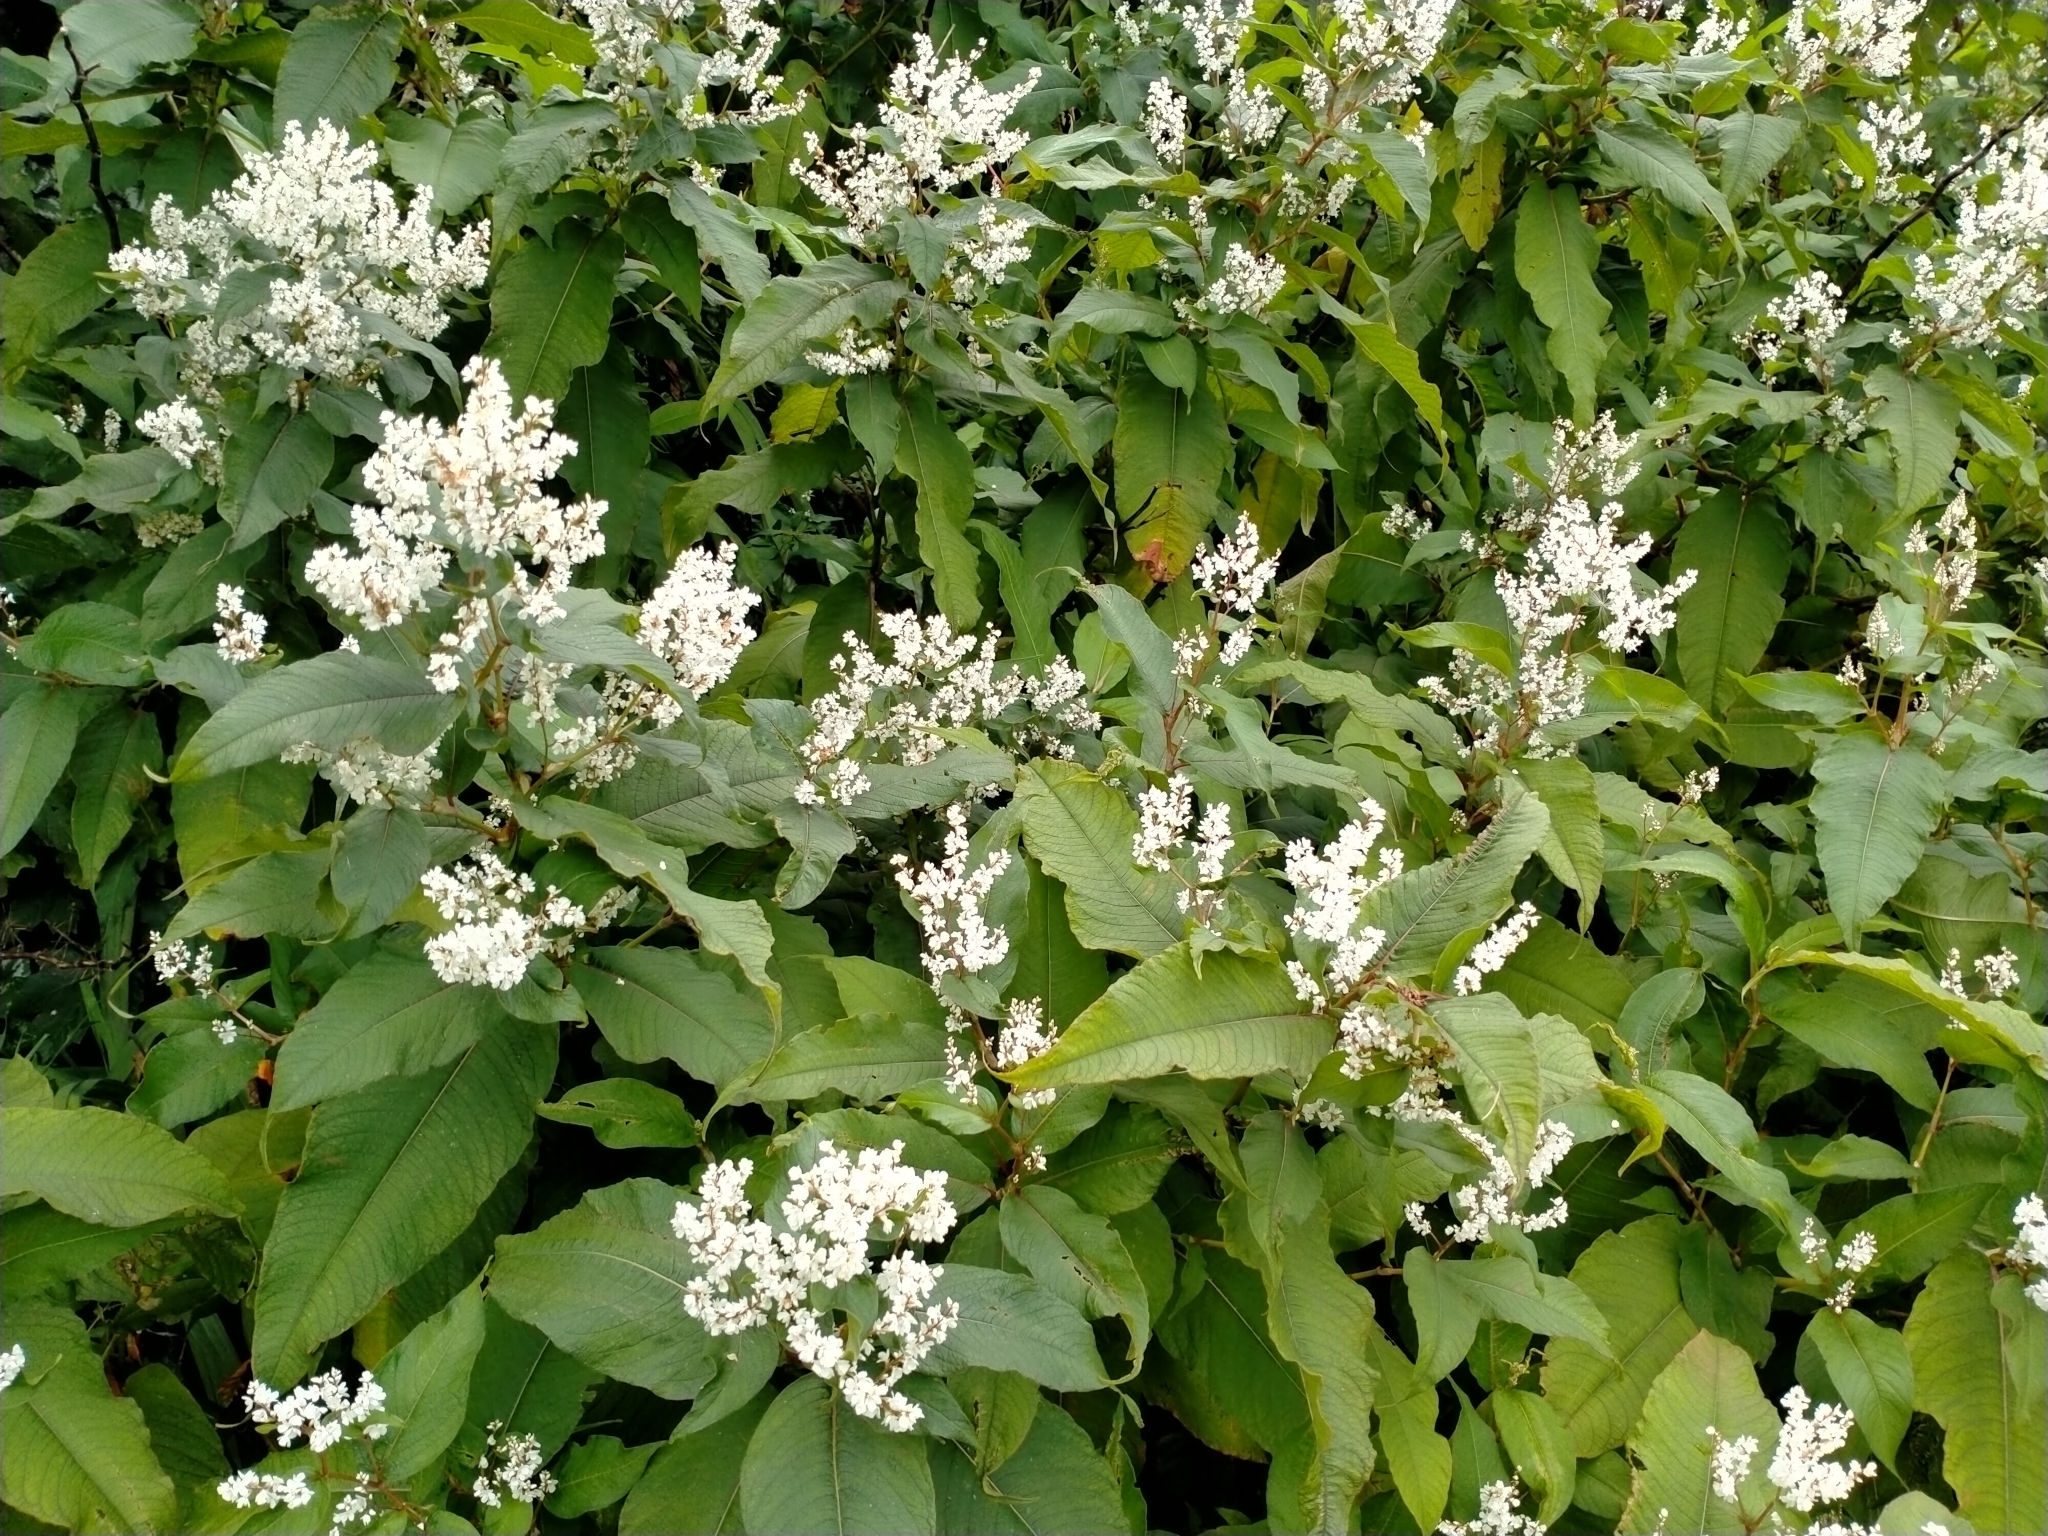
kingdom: Plantae
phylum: Tracheophyta
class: Magnoliopsida
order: Caryophyllales
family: Polygonaceae
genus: Koenigia
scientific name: Koenigia polystachya
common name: Himalayan knotweed
